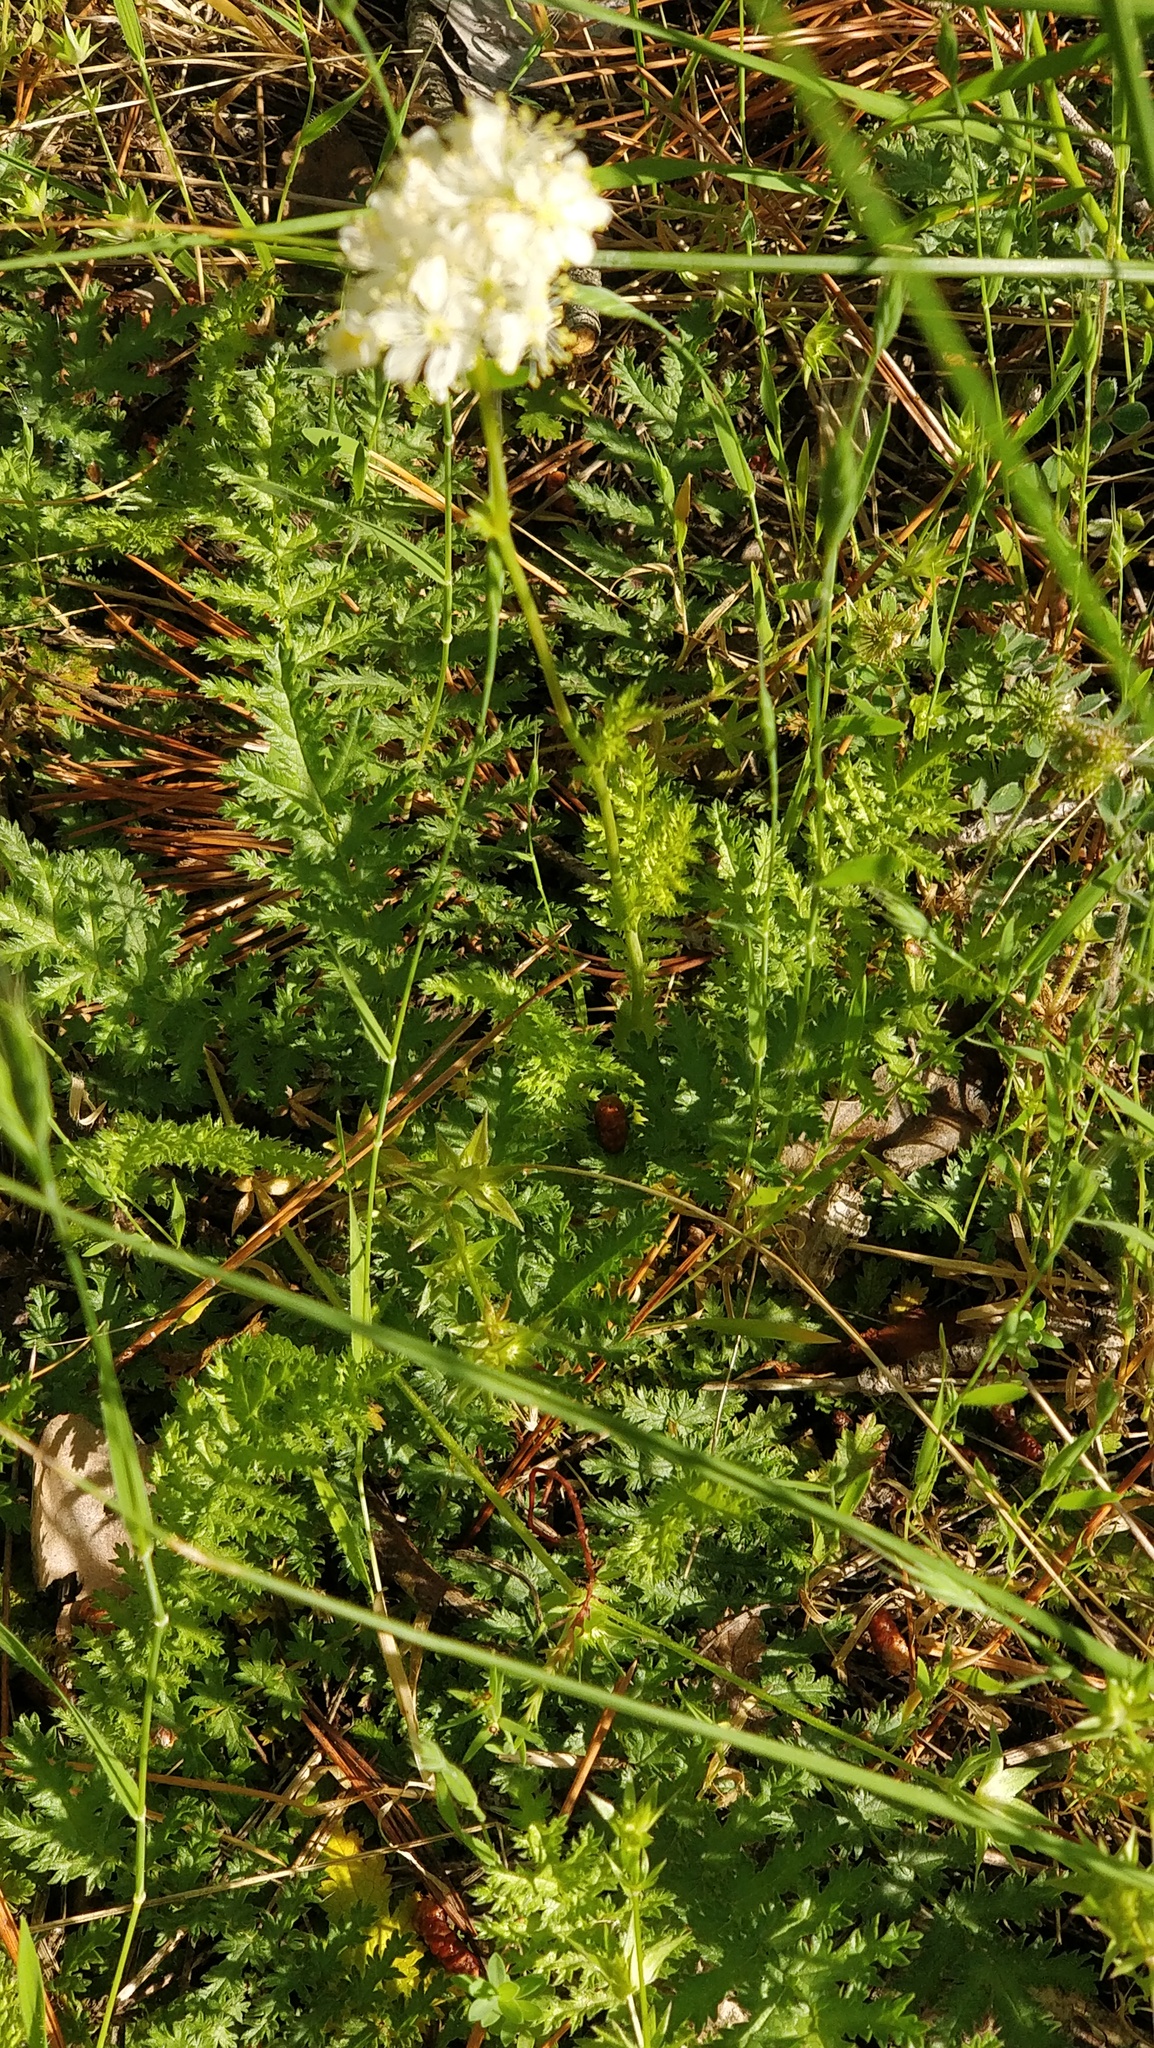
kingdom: Plantae
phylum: Tracheophyta
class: Magnoliopsida
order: Rosales
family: Rosaceae
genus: Filipendula
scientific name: Filipendula vulgaris
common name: Dropwort
